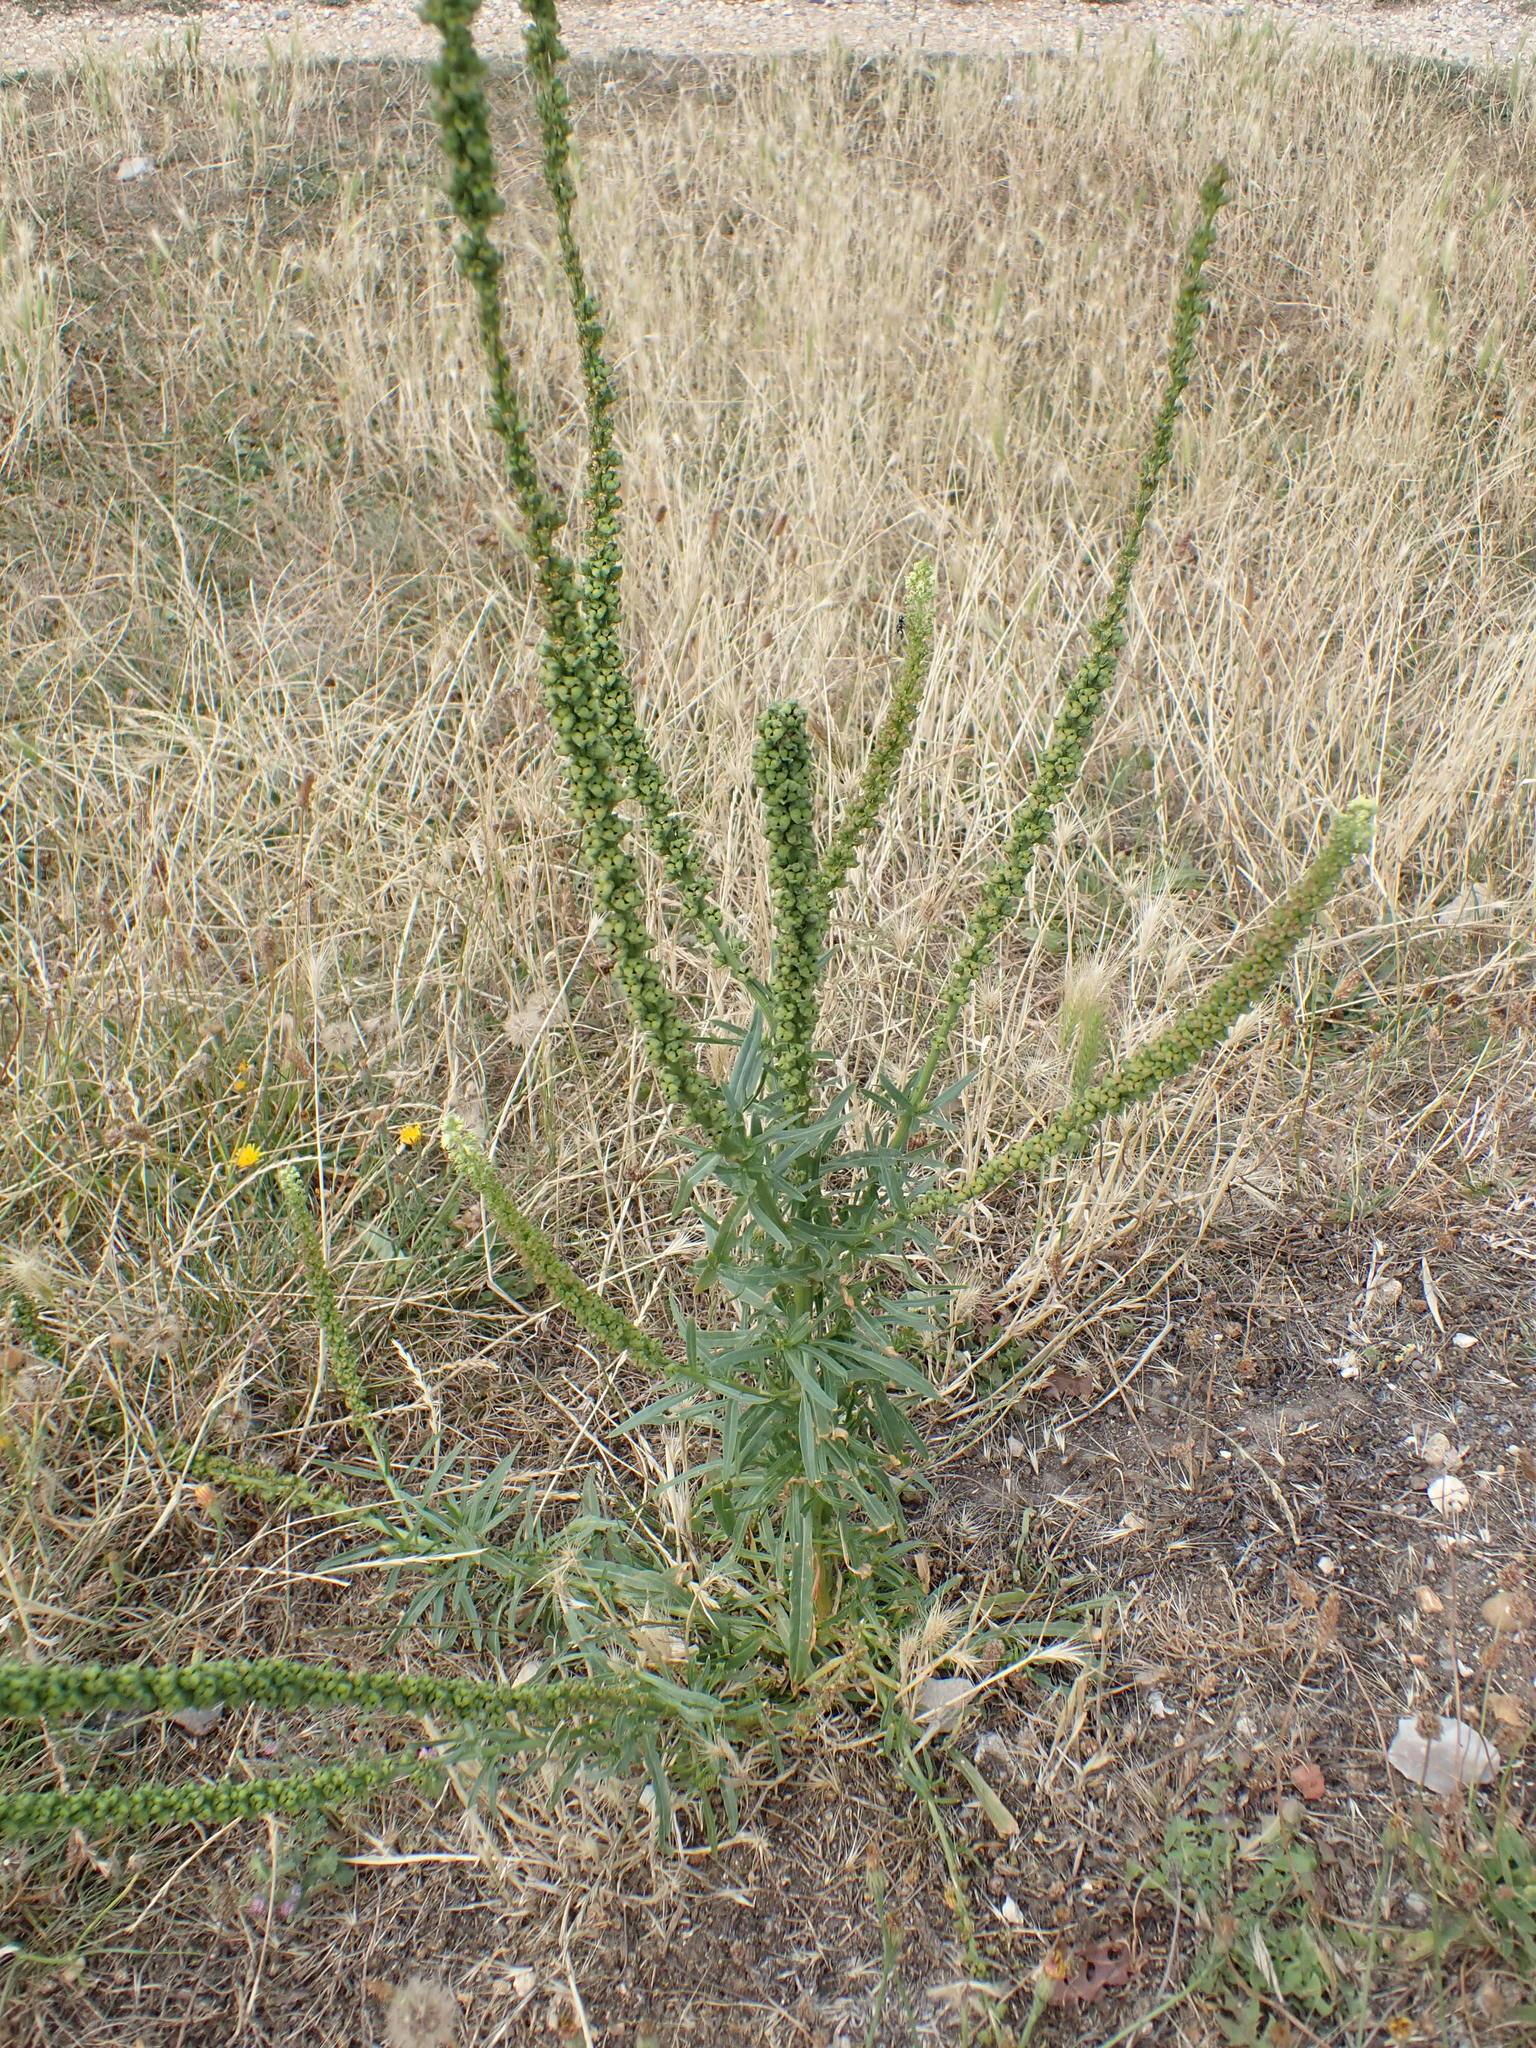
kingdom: Plantae
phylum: Tracheophyta
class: Magnoliopsida
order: Brassicales
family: Resedaceae
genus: Reseda
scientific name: Reseda luteola
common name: Weld
